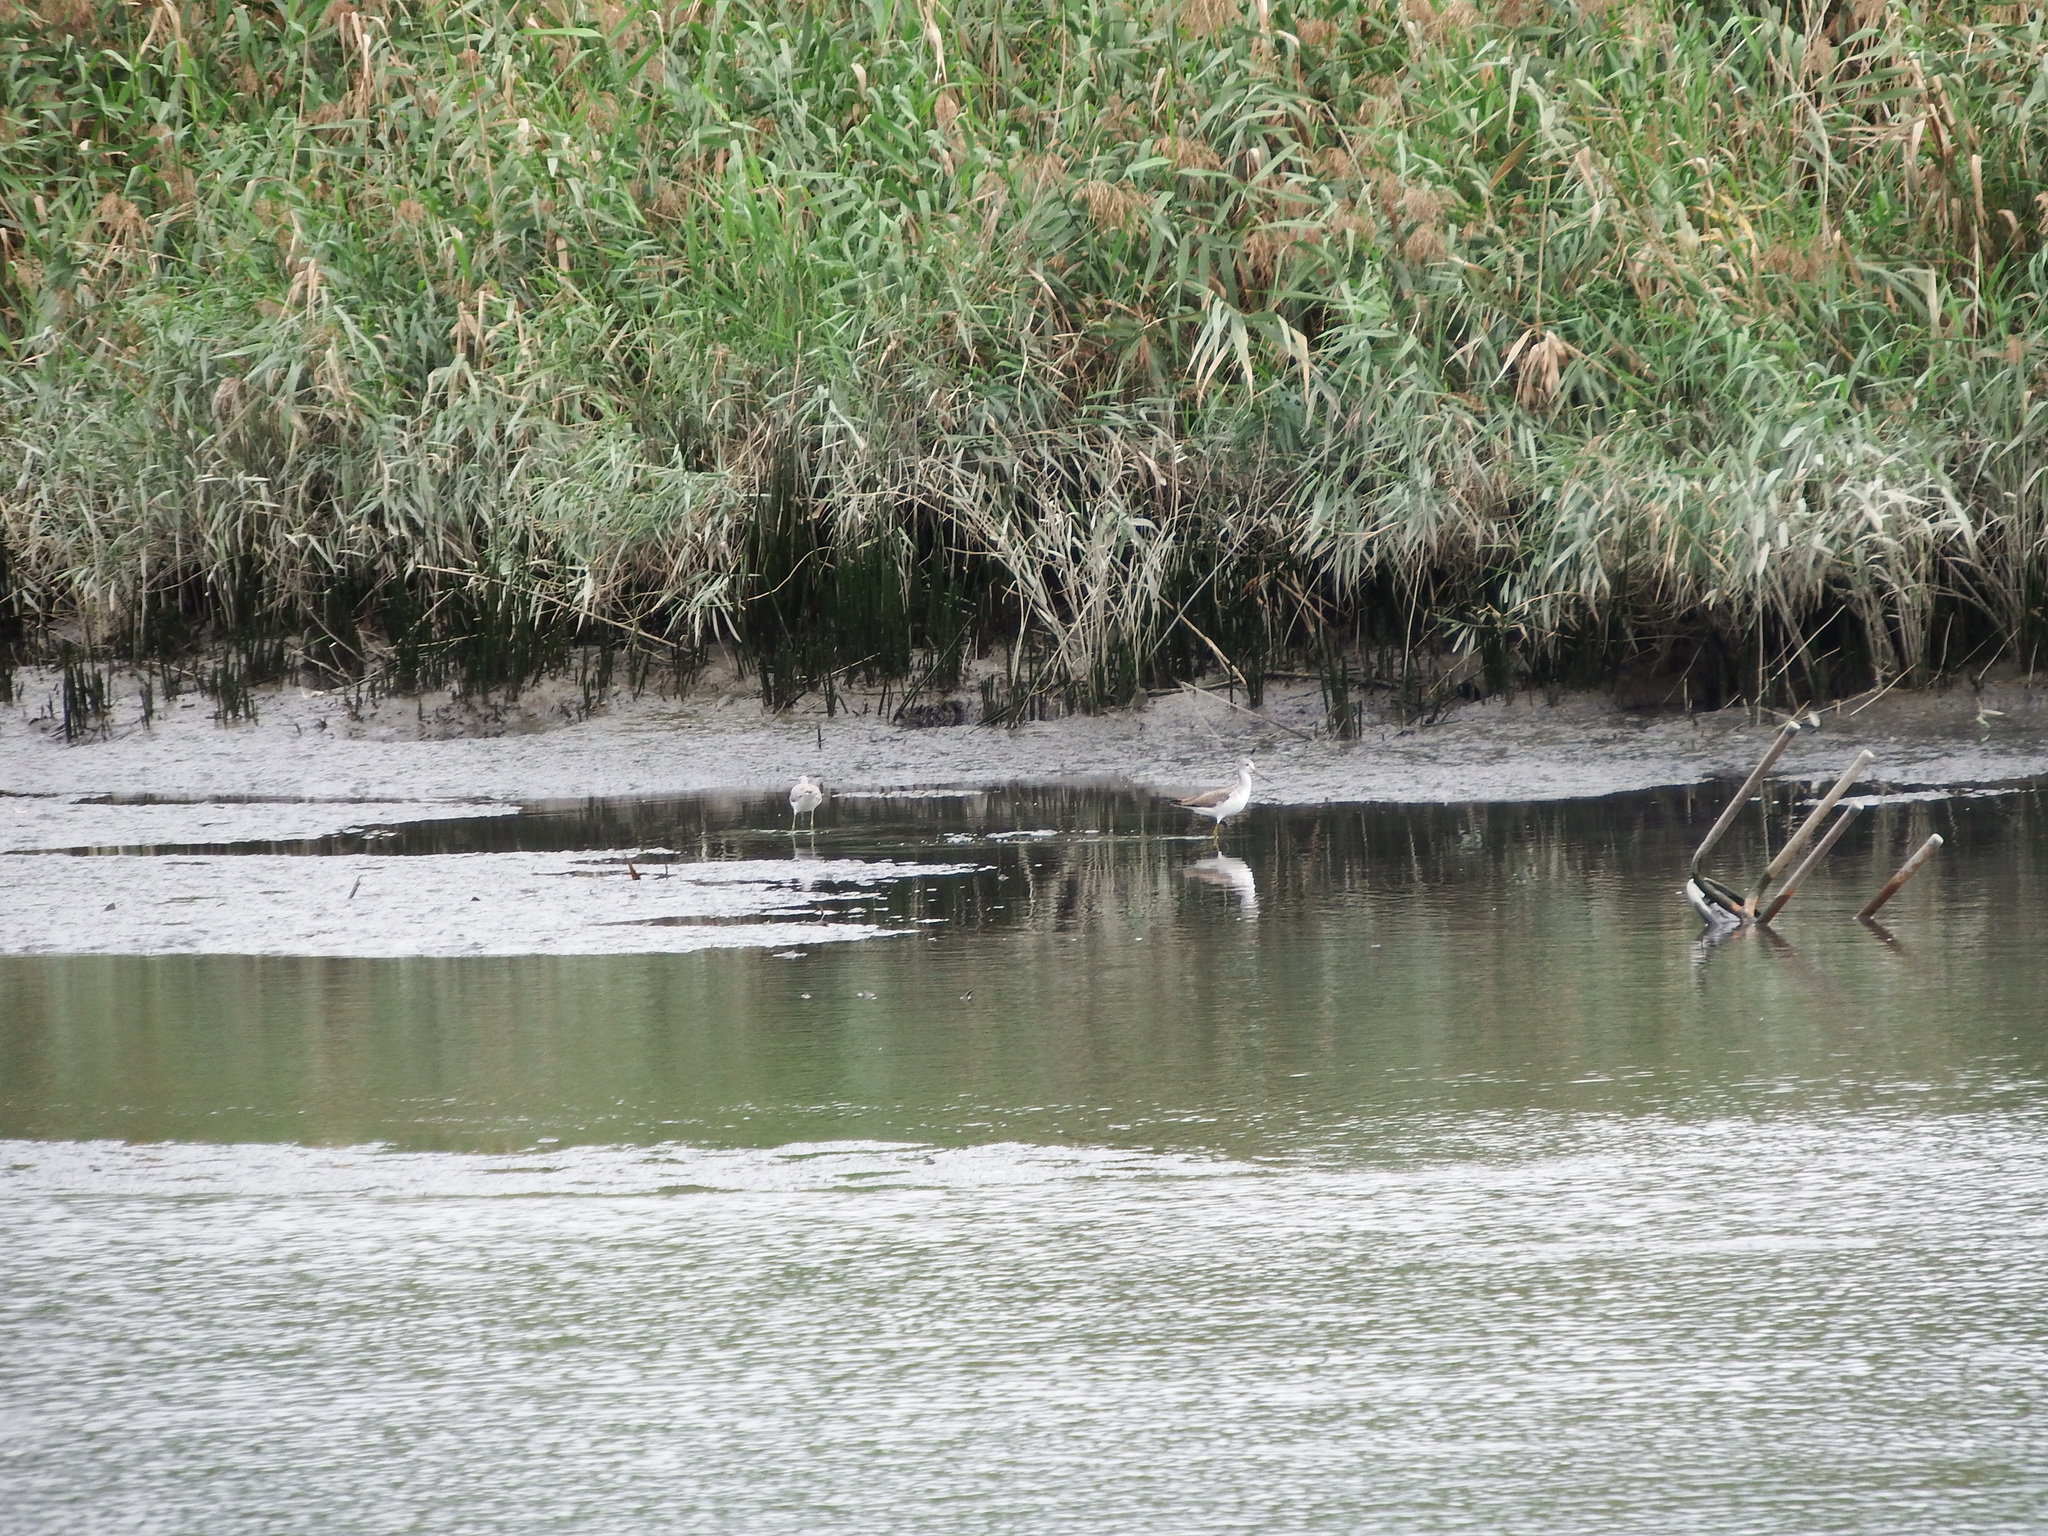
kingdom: Animalia
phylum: Chordata
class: Aves
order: Charadriiformes
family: Scolopacidae
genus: Tringa
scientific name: Tringa nebularia
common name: Common greenshank
